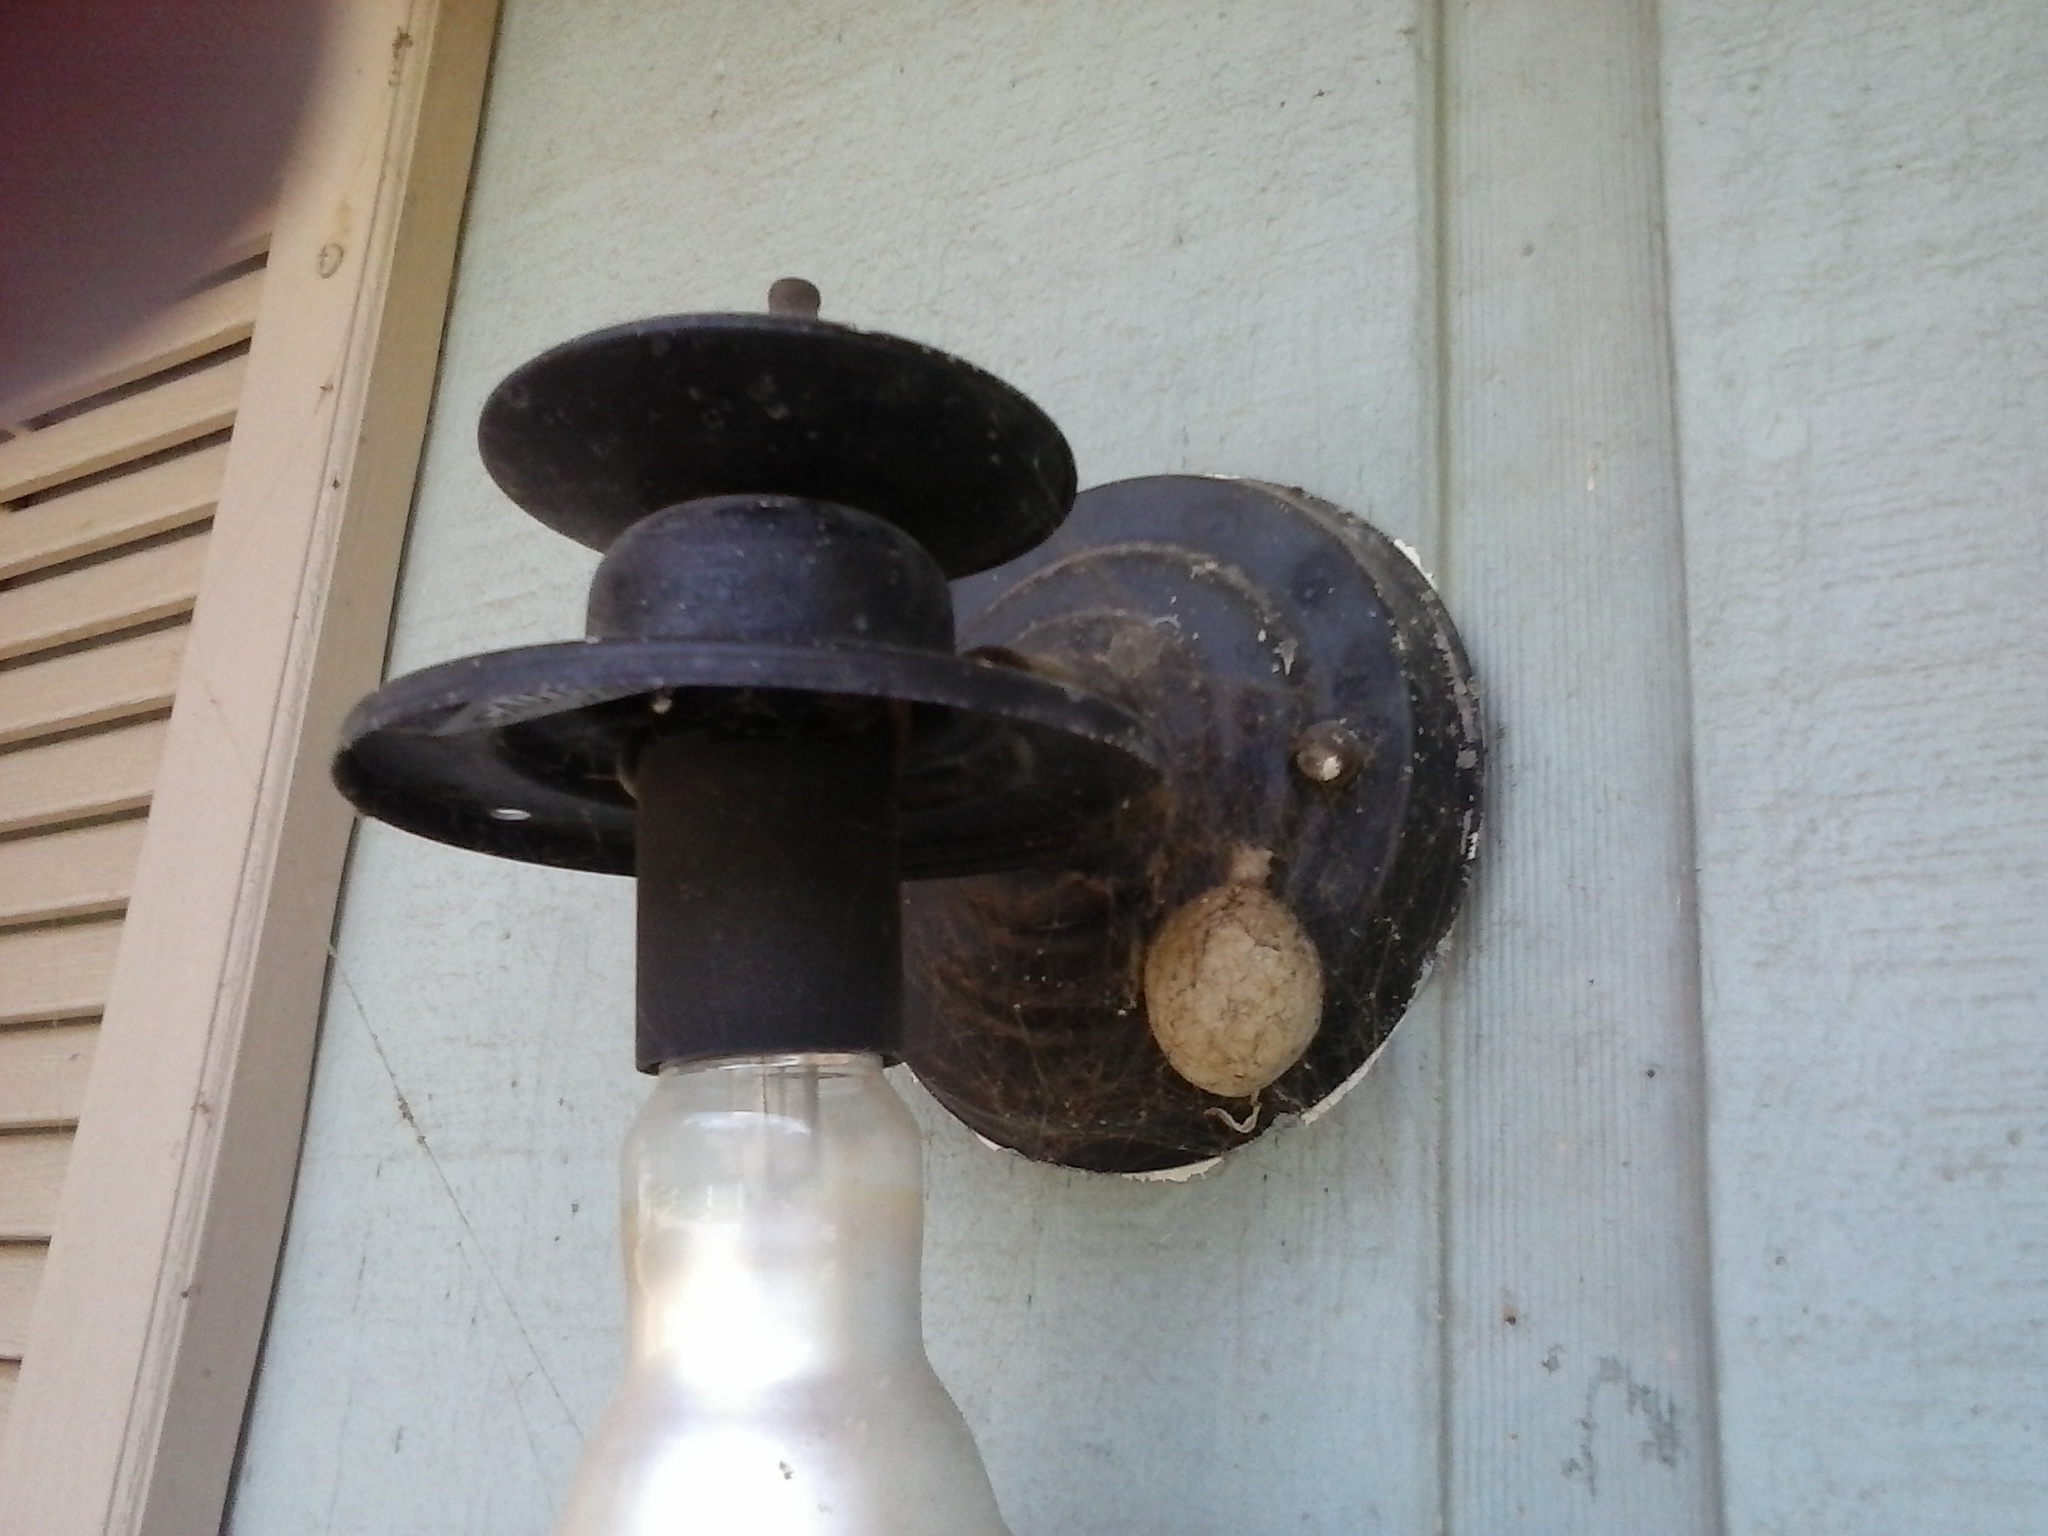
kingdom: Animalia
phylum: Arthropoda
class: Arachnida
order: Araneae
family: Araneidae
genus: Argiope
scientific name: Argiope aurantia
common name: Orb weavers
